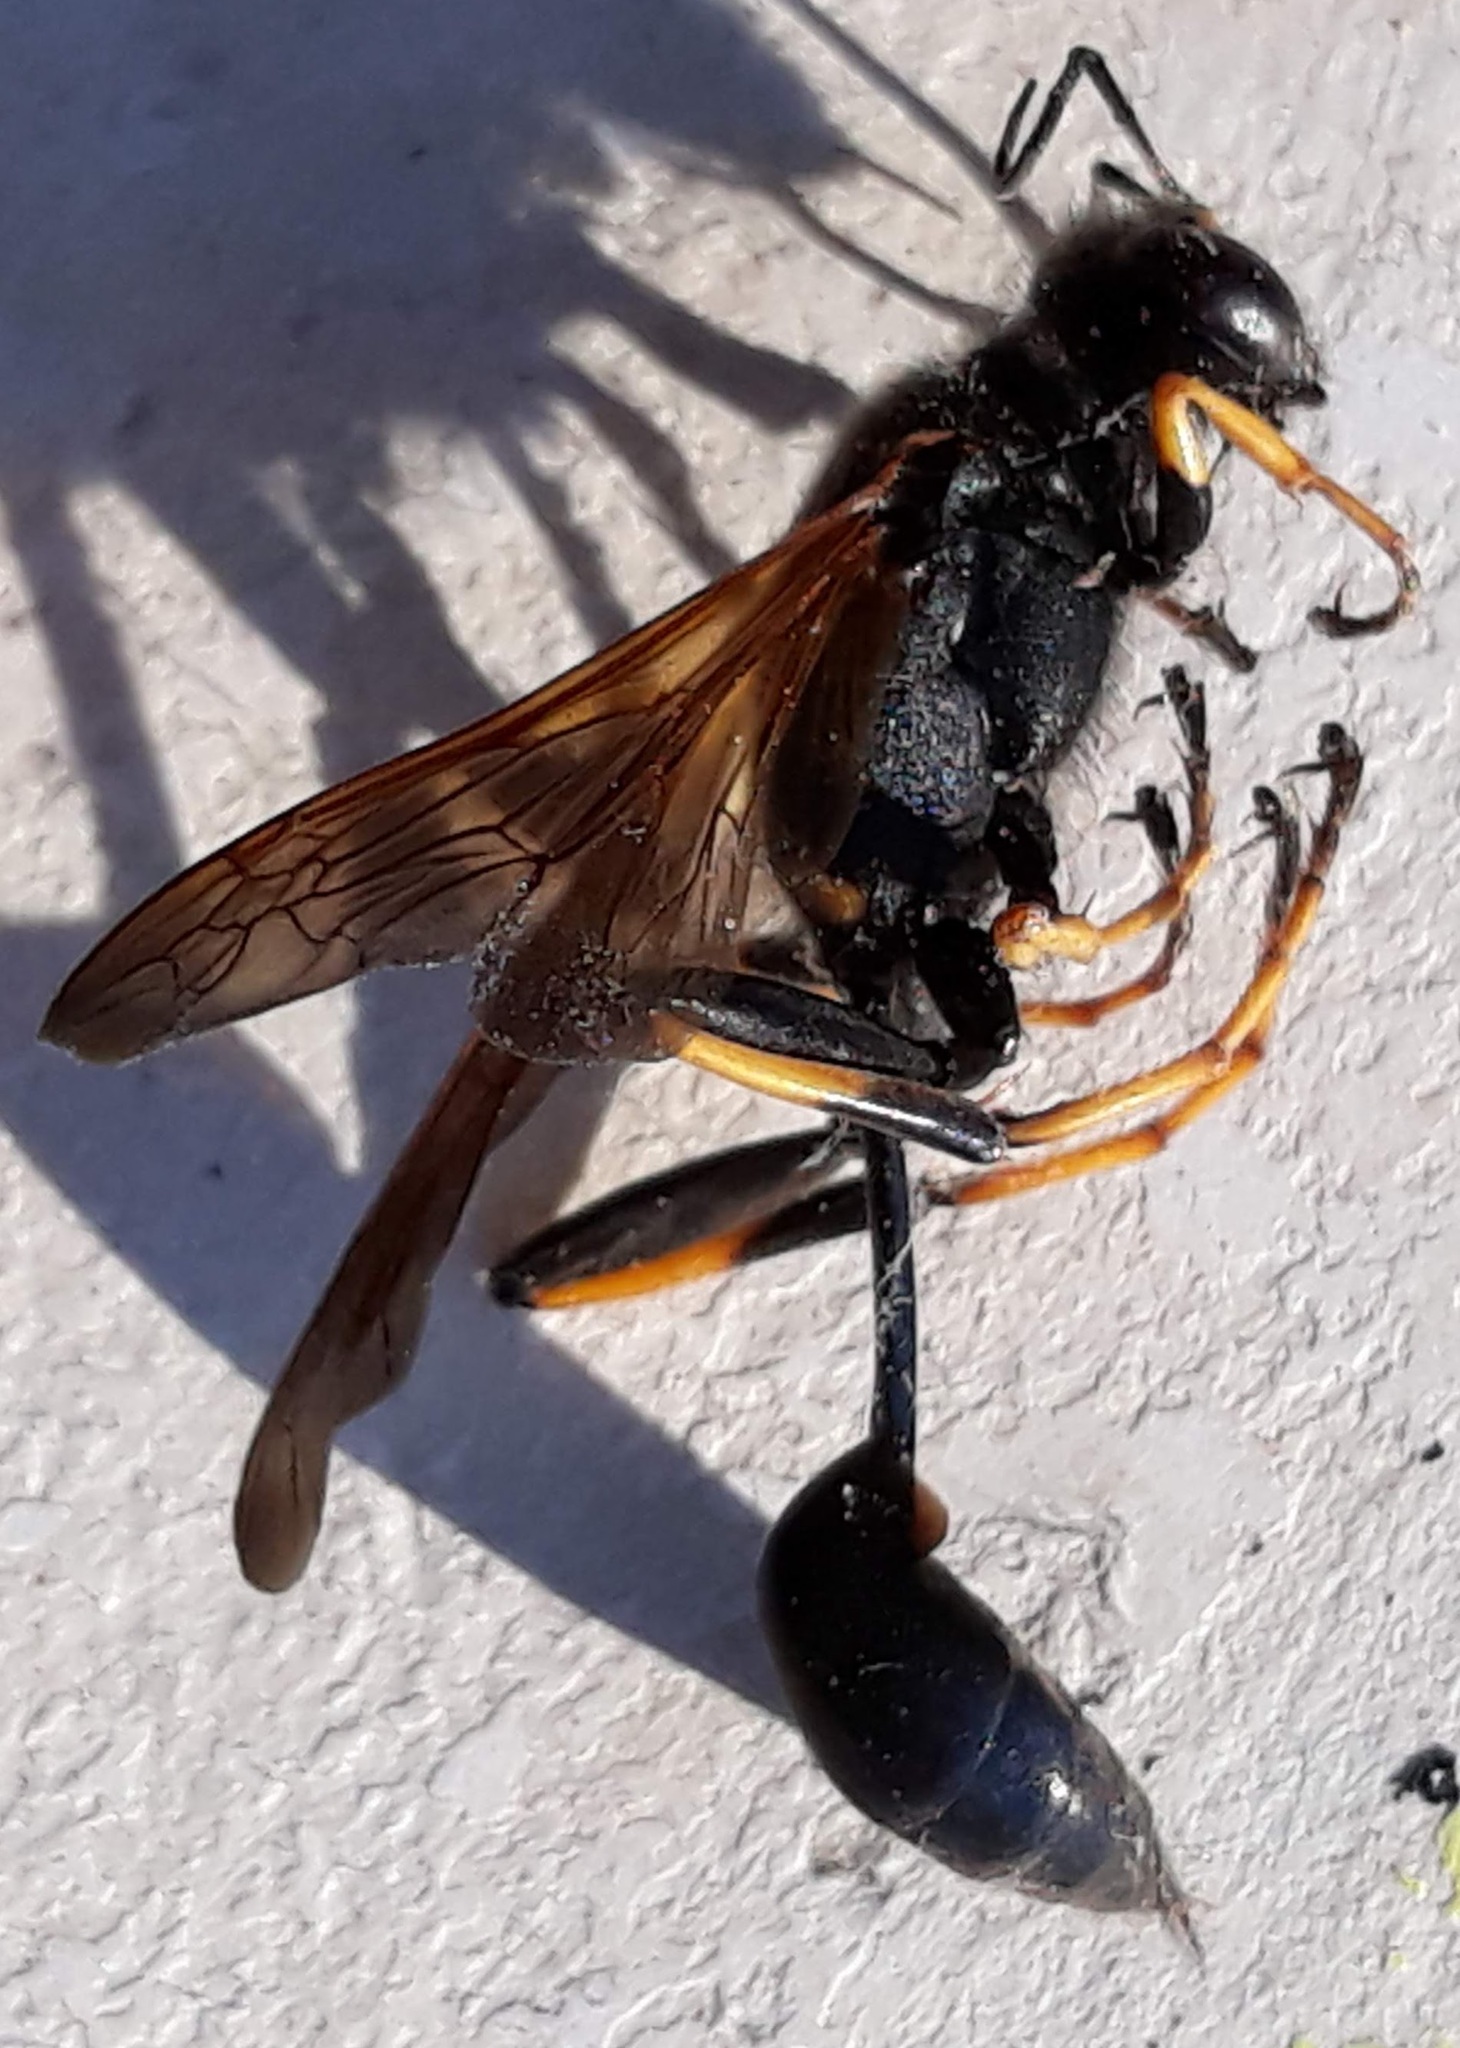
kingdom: Animalia
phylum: Arthropoda
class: Insecta
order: Hymenoptera
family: Sphecidae
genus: Sceliphron
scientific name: Sceliphron caementarium
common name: Mud dauber
